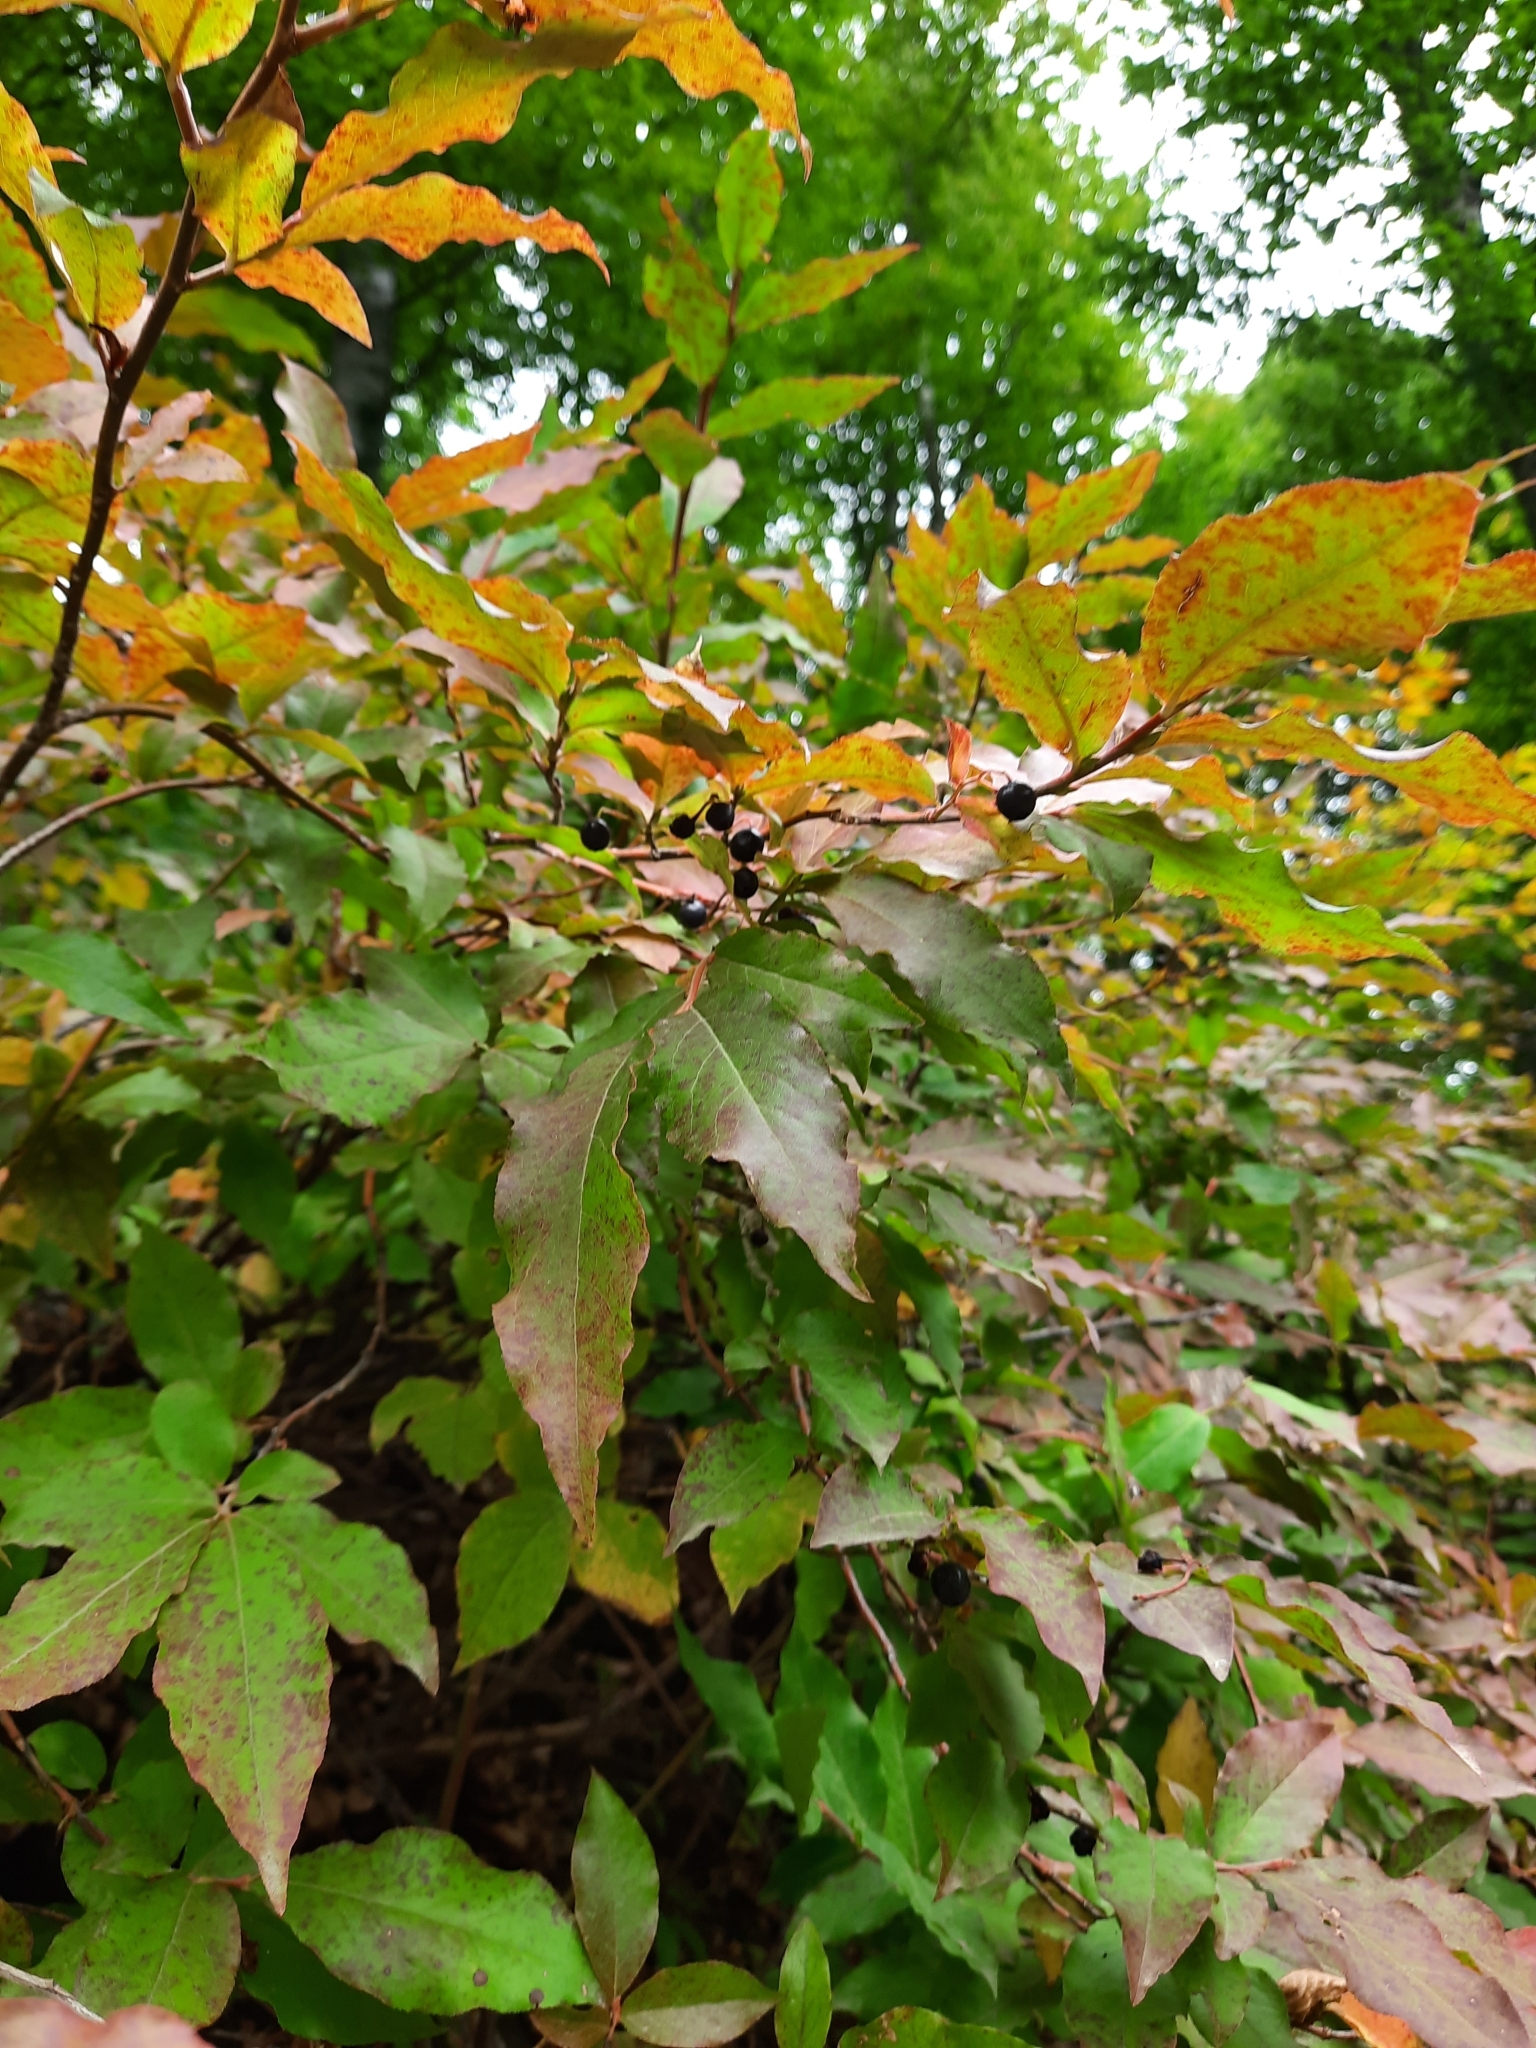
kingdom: Plantae
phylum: Tracheophyta
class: Magnoliopsida
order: Ericales
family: Ericaceae
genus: Vaccinium
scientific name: Vaccinium arctostaphylos
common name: Caucasian whortleberry
